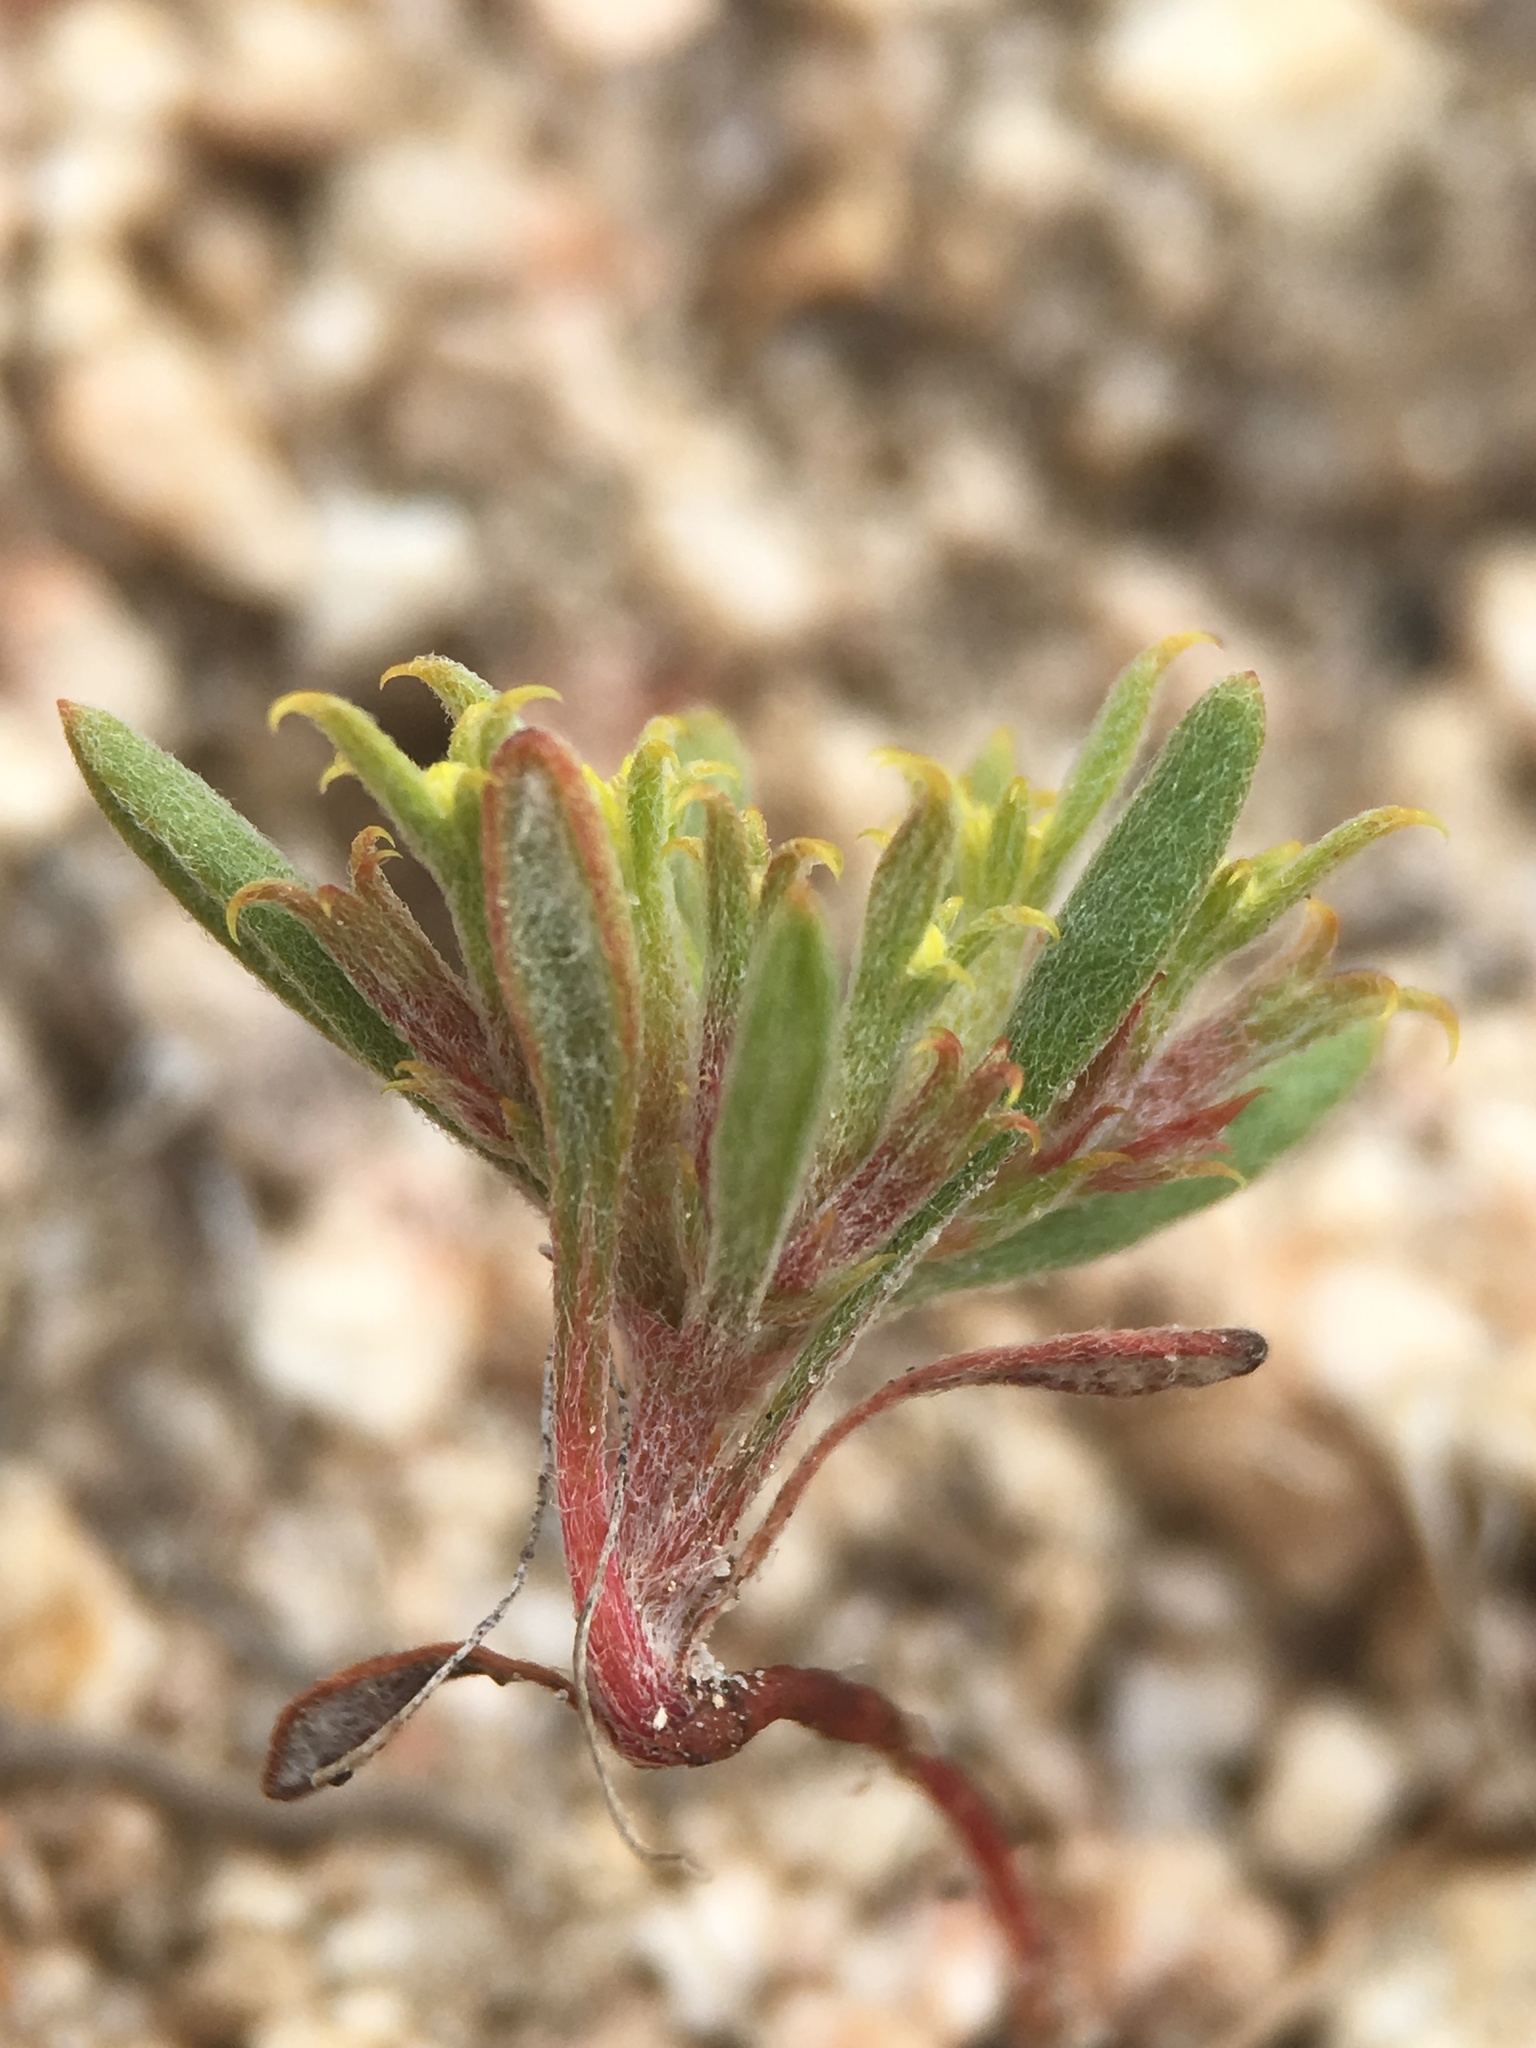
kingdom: Plantae
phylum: Tracheophyta
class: Magnoliopsida
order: Caryophyllales
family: Polygonaceae
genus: Chorizanthe
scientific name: Chorizanthe watsonii
